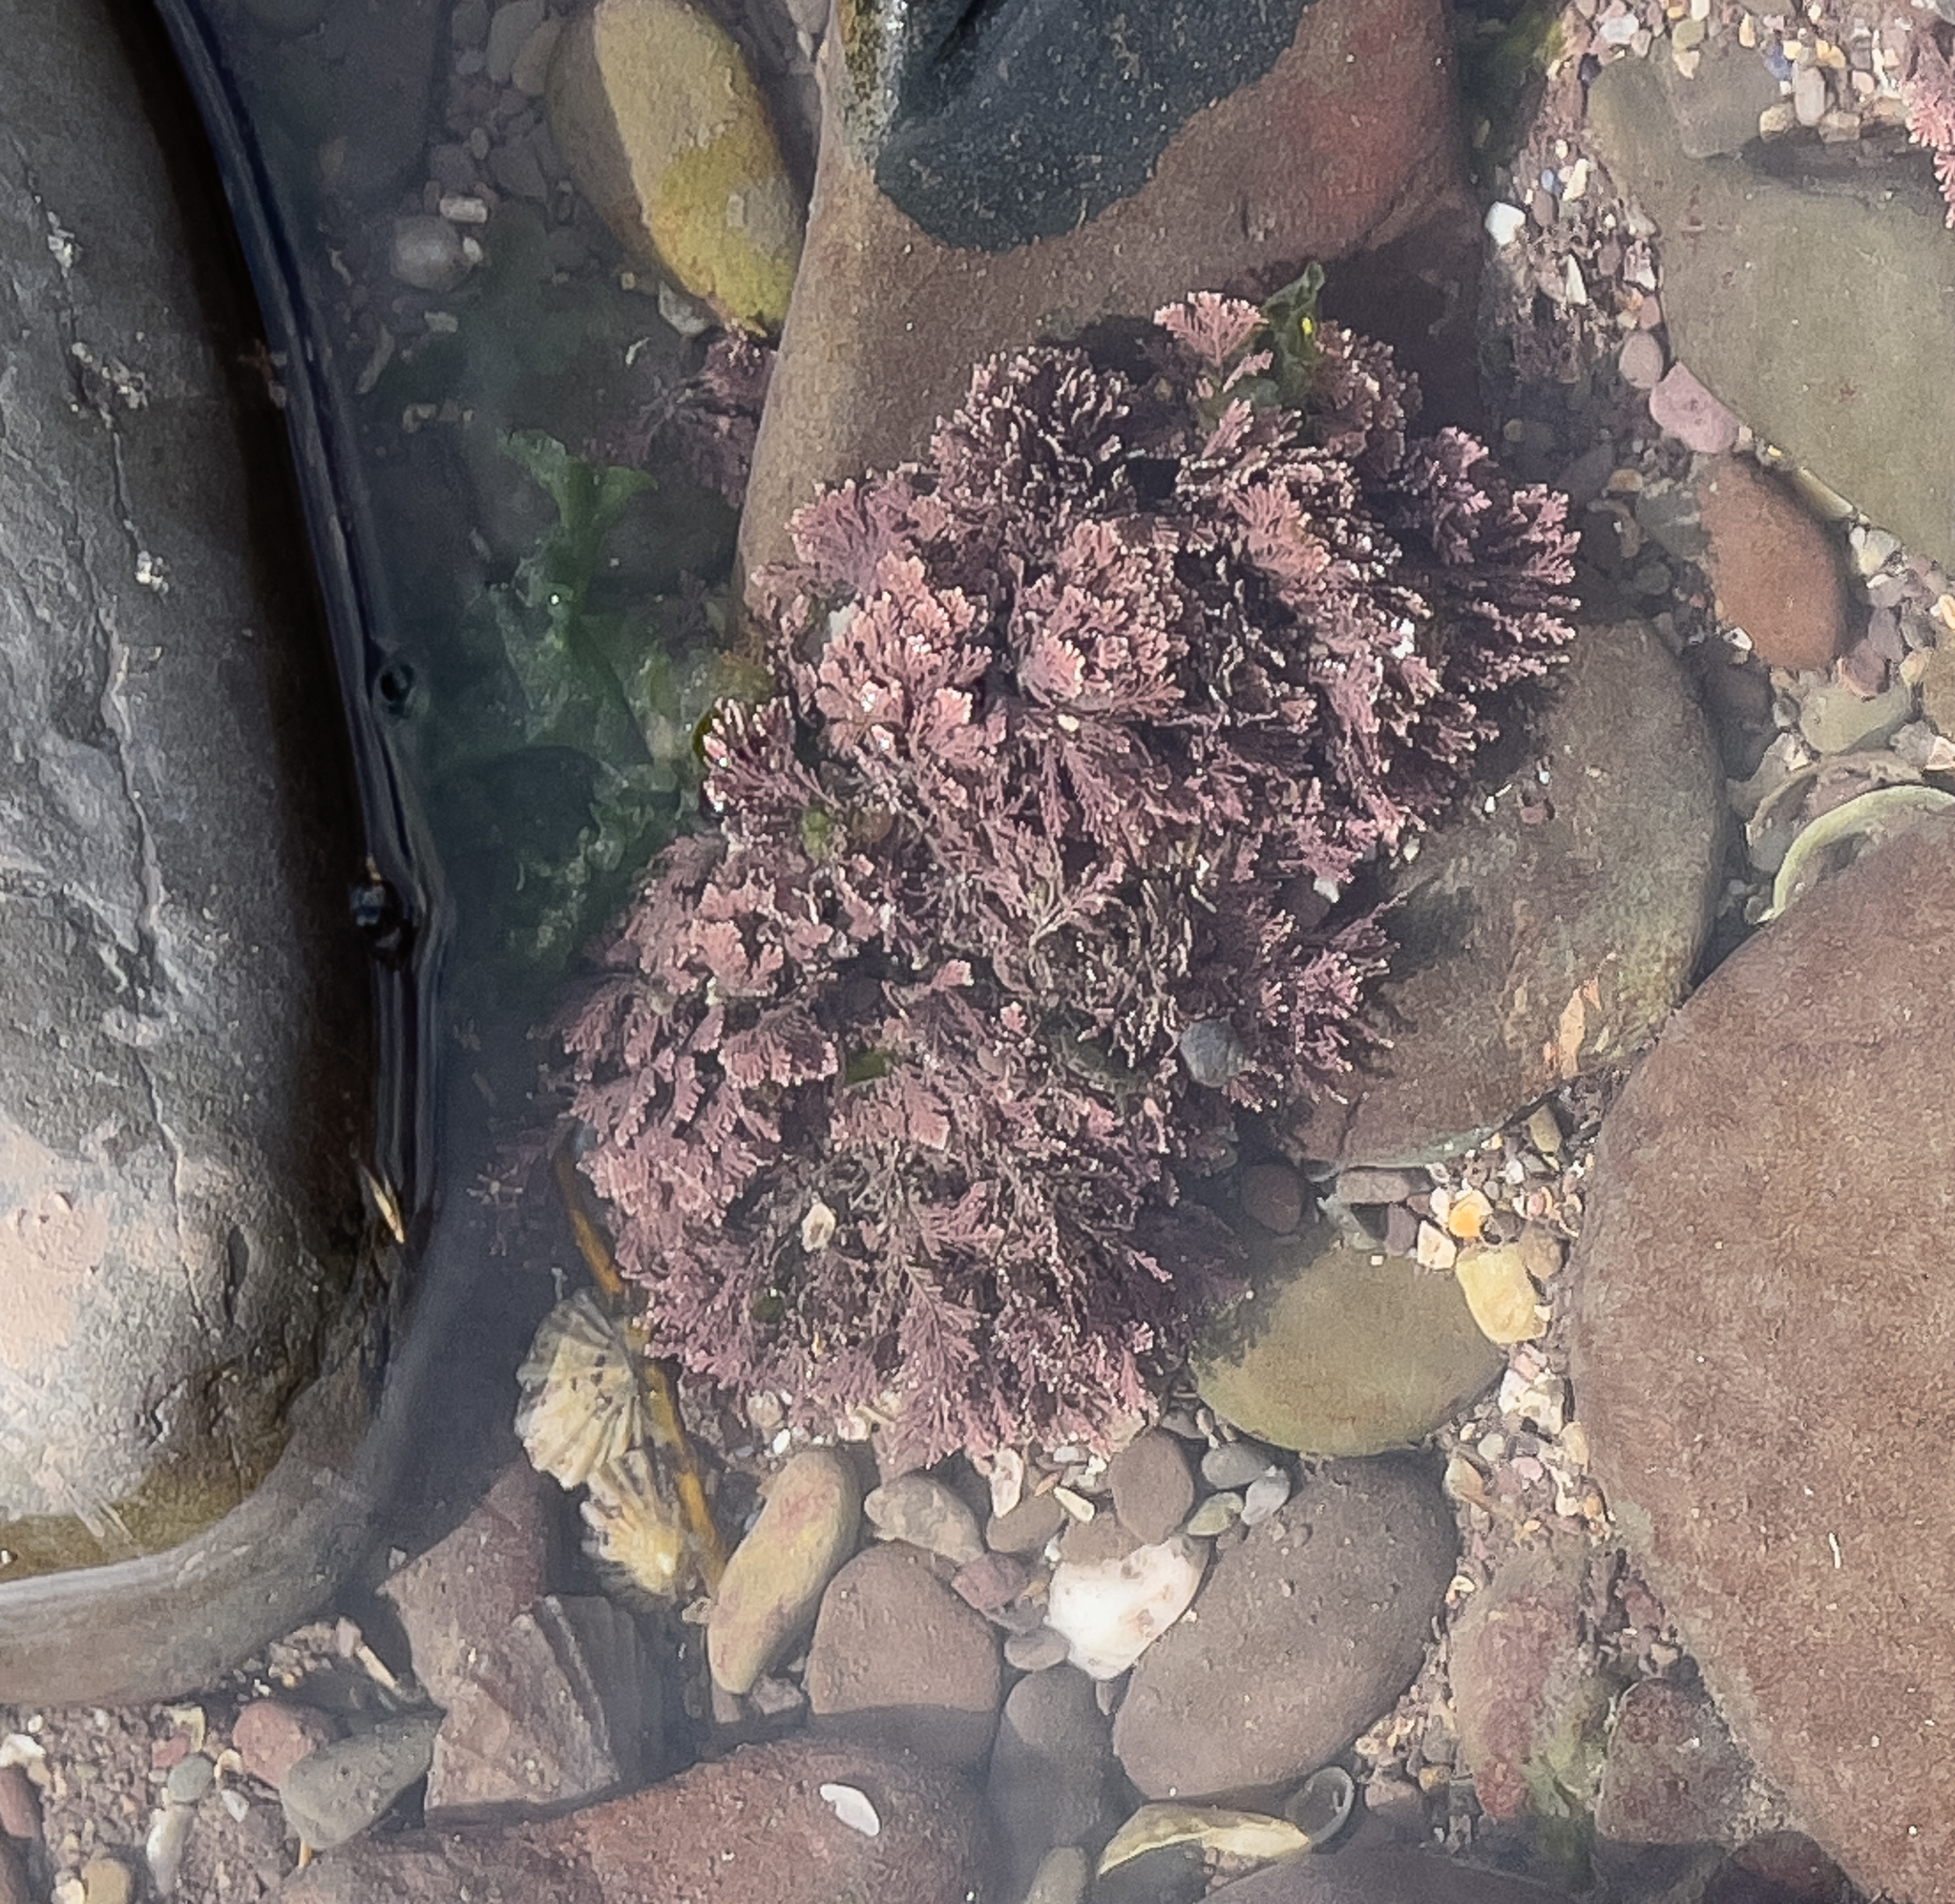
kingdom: Plantae
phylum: Rhodophyta
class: Florideophyceae
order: Corallinales
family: Corallinaceae
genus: Corallina
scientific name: Corallina officinalis
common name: Coral weed
